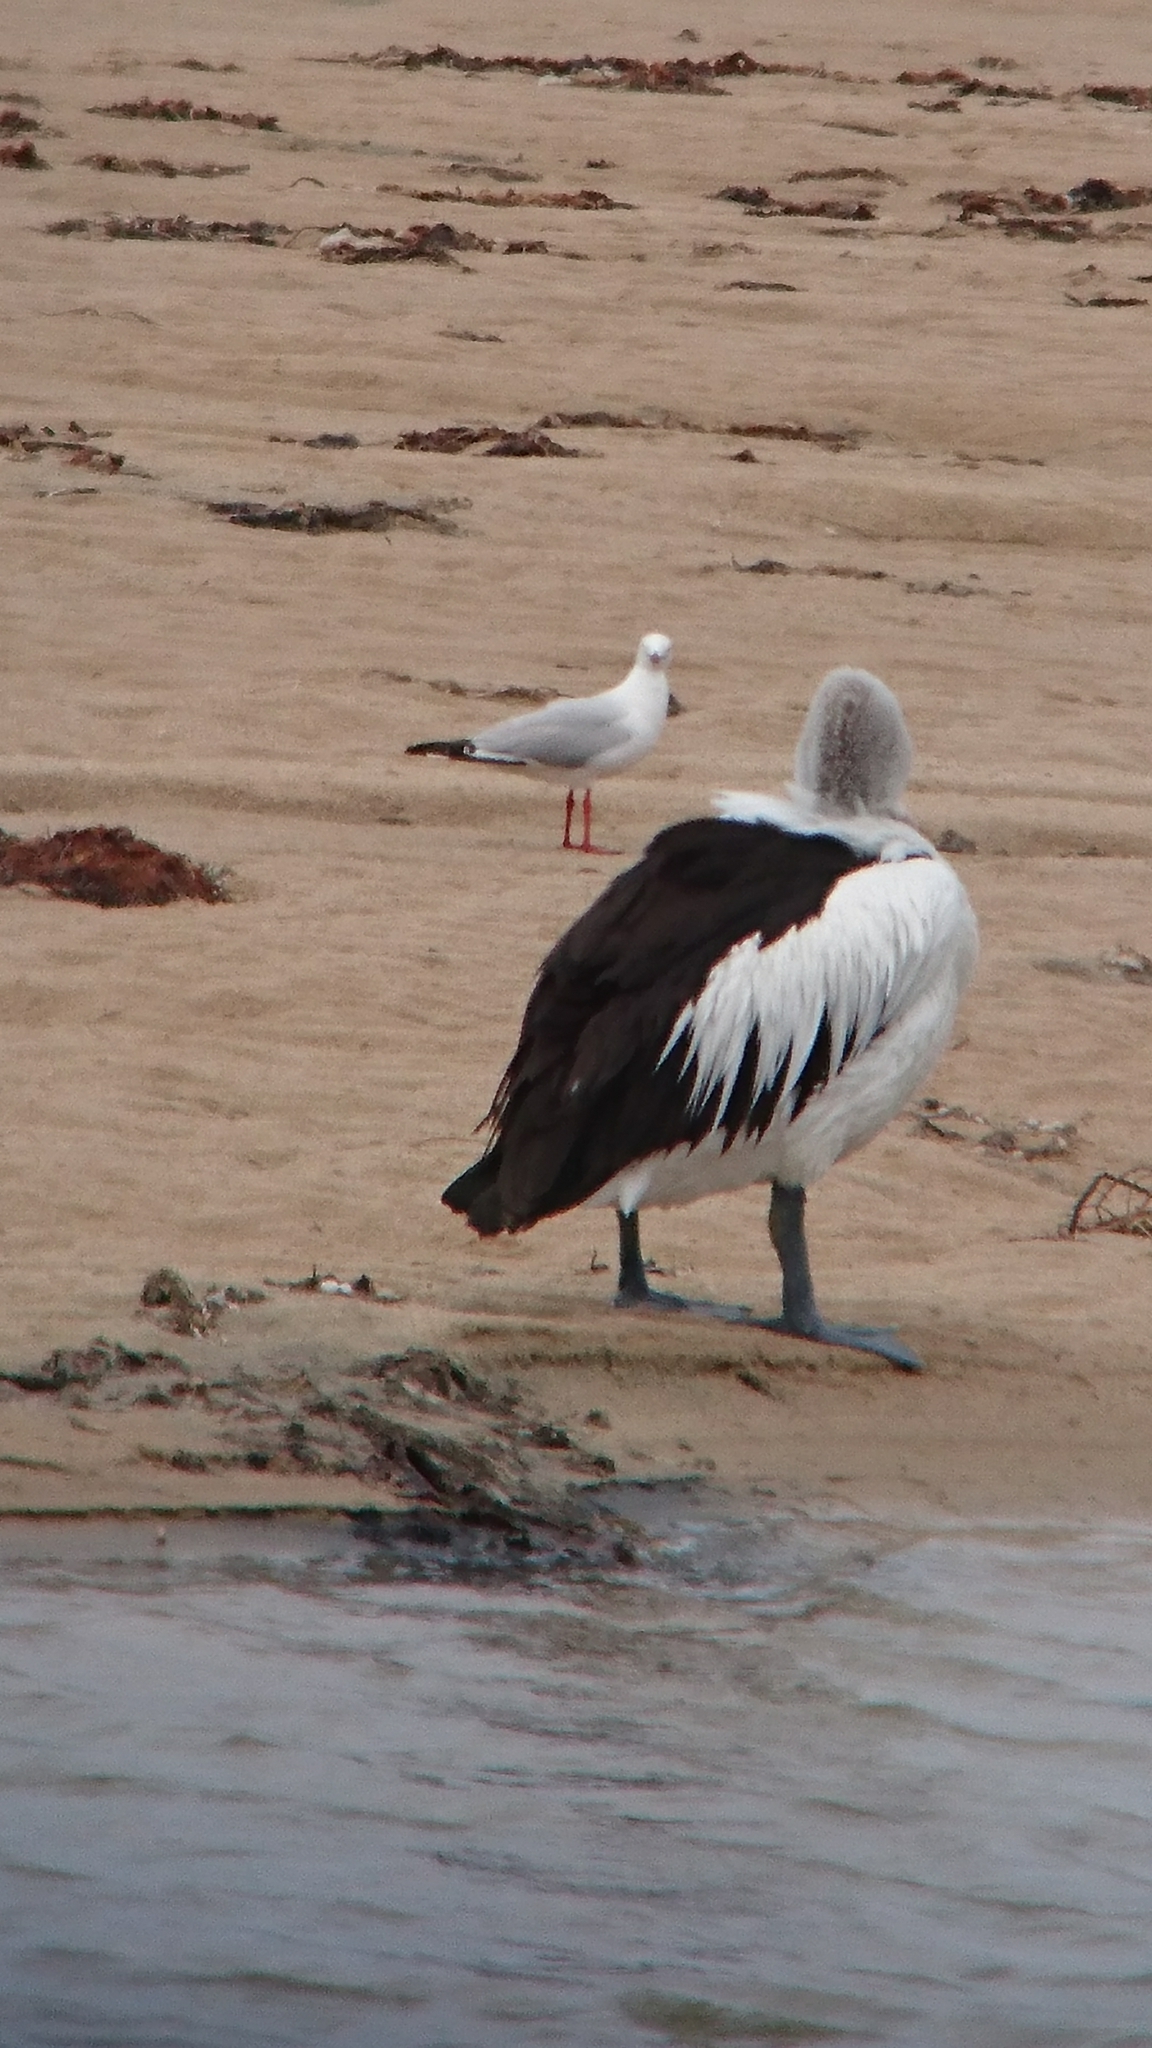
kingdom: Animalia
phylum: Chordata
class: Aves
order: Charadriiformes
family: Laridae
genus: Chroicocephalus
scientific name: Chroicocephalus novaehollandiae
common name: Silver gull
